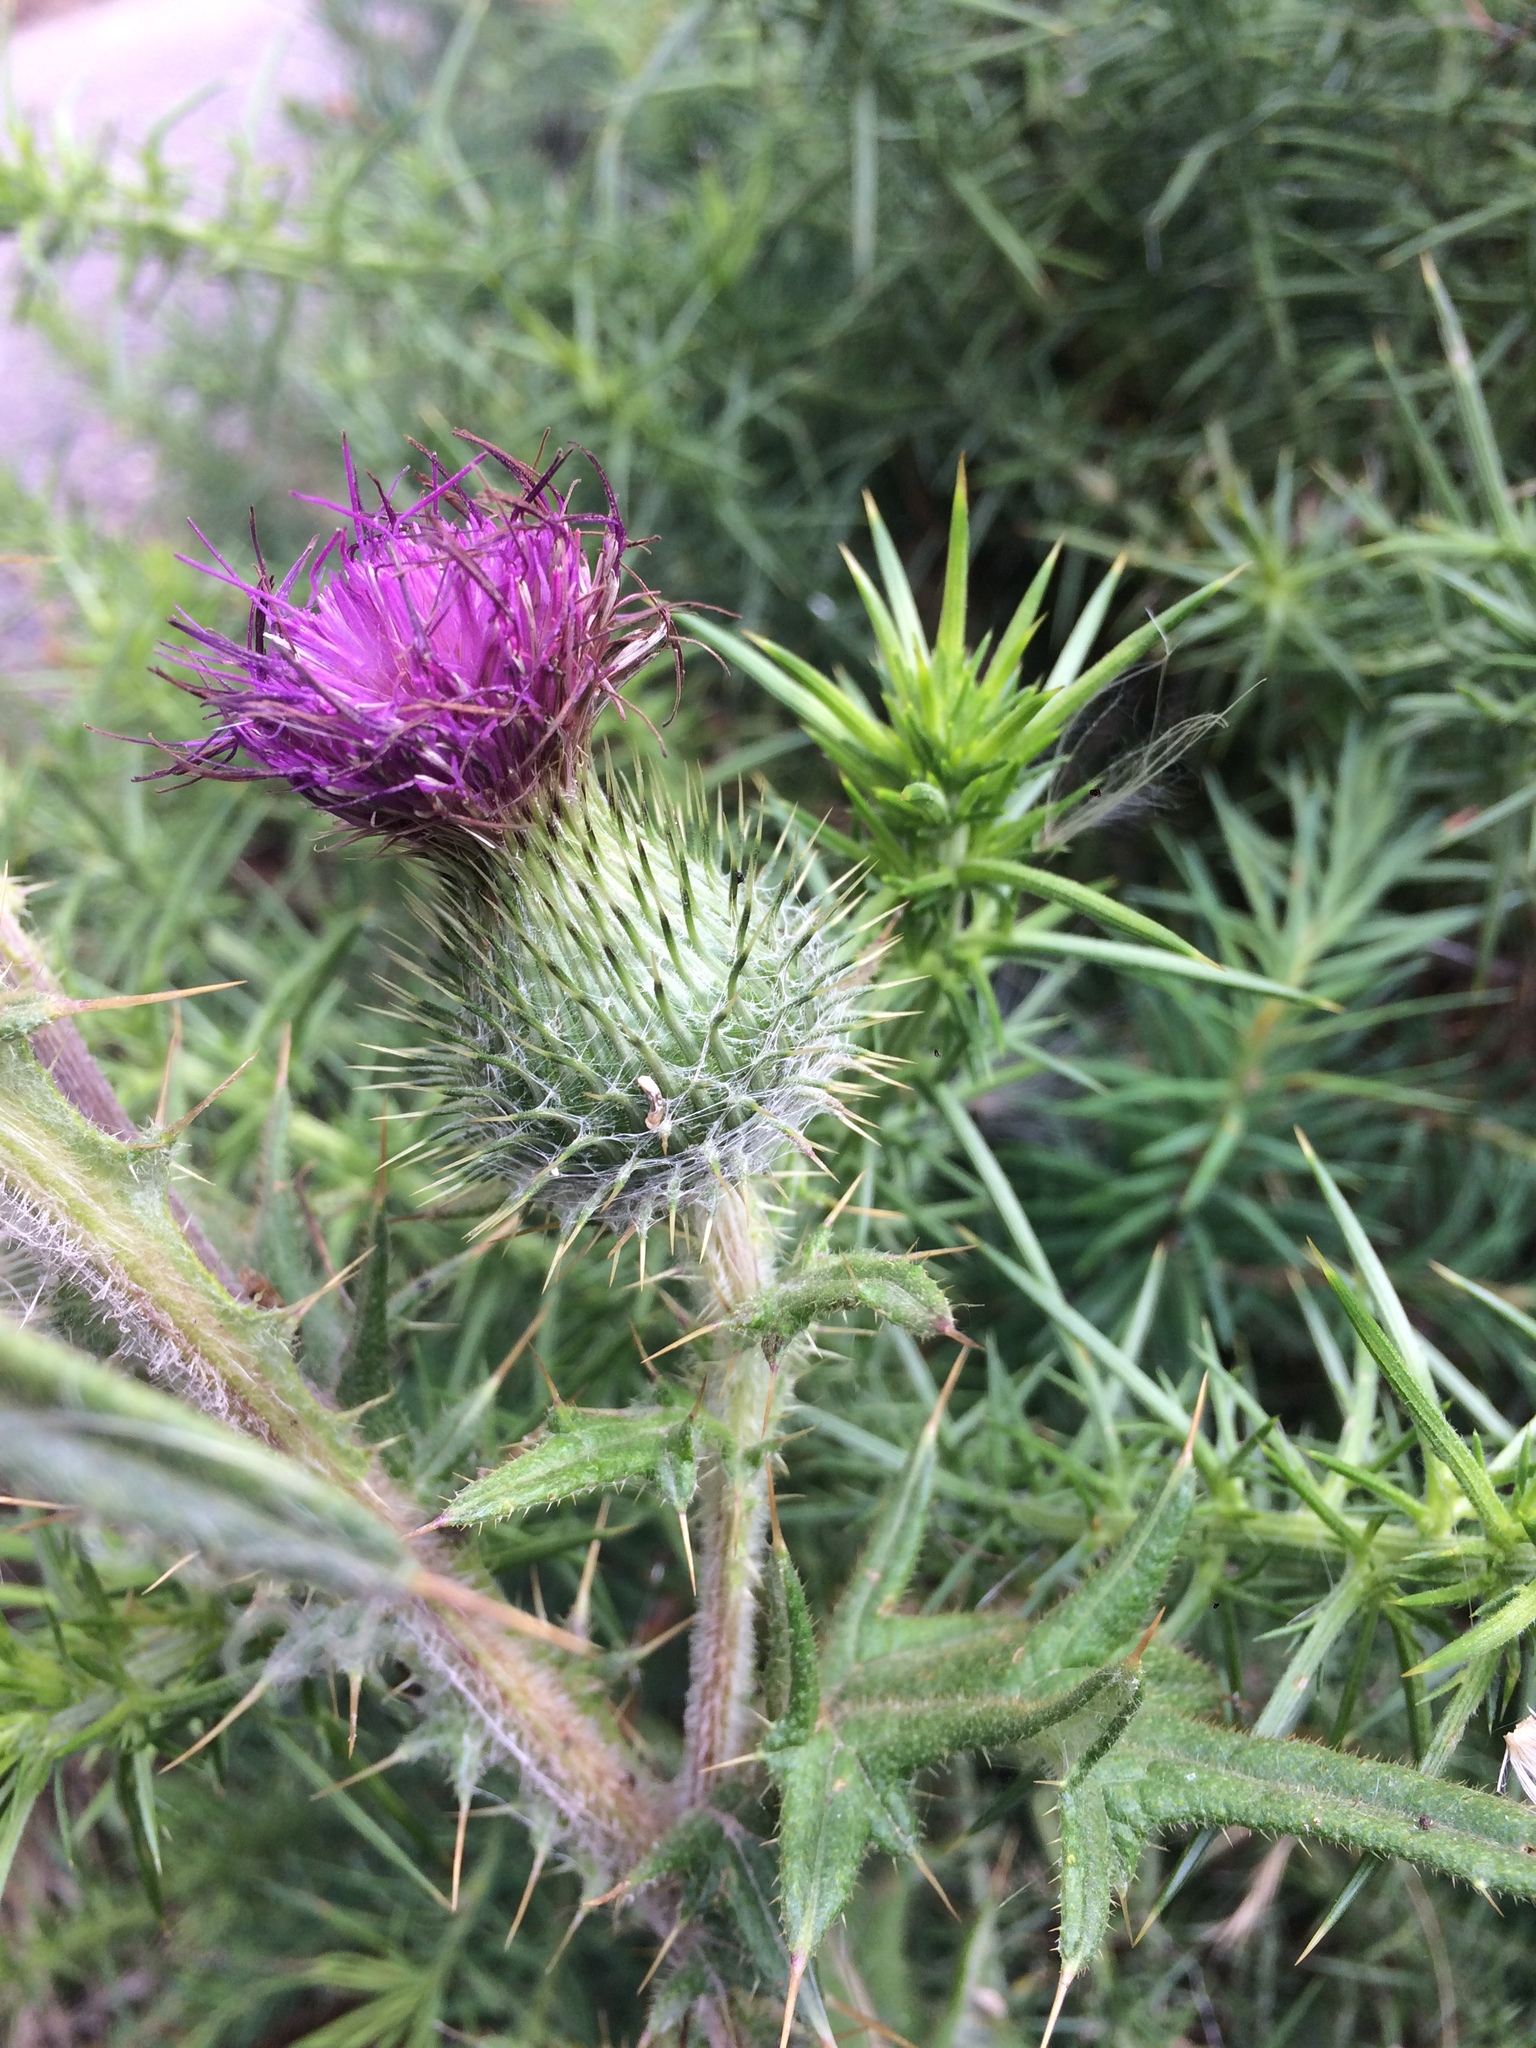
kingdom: Plantae
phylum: Tracheophyta
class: Magnoliopsida
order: Asterales
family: Asteraceae
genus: Cirsium
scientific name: Cirsium vulgare
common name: Bull thistle
